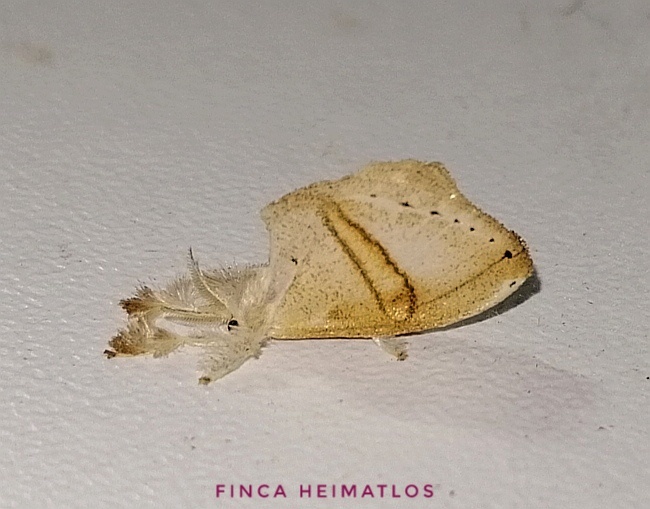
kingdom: Animalia
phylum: Arthropoda
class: Insecta
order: Lepidoptera
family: Dalceridae
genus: Paracraga
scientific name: Paracraga canalicula
